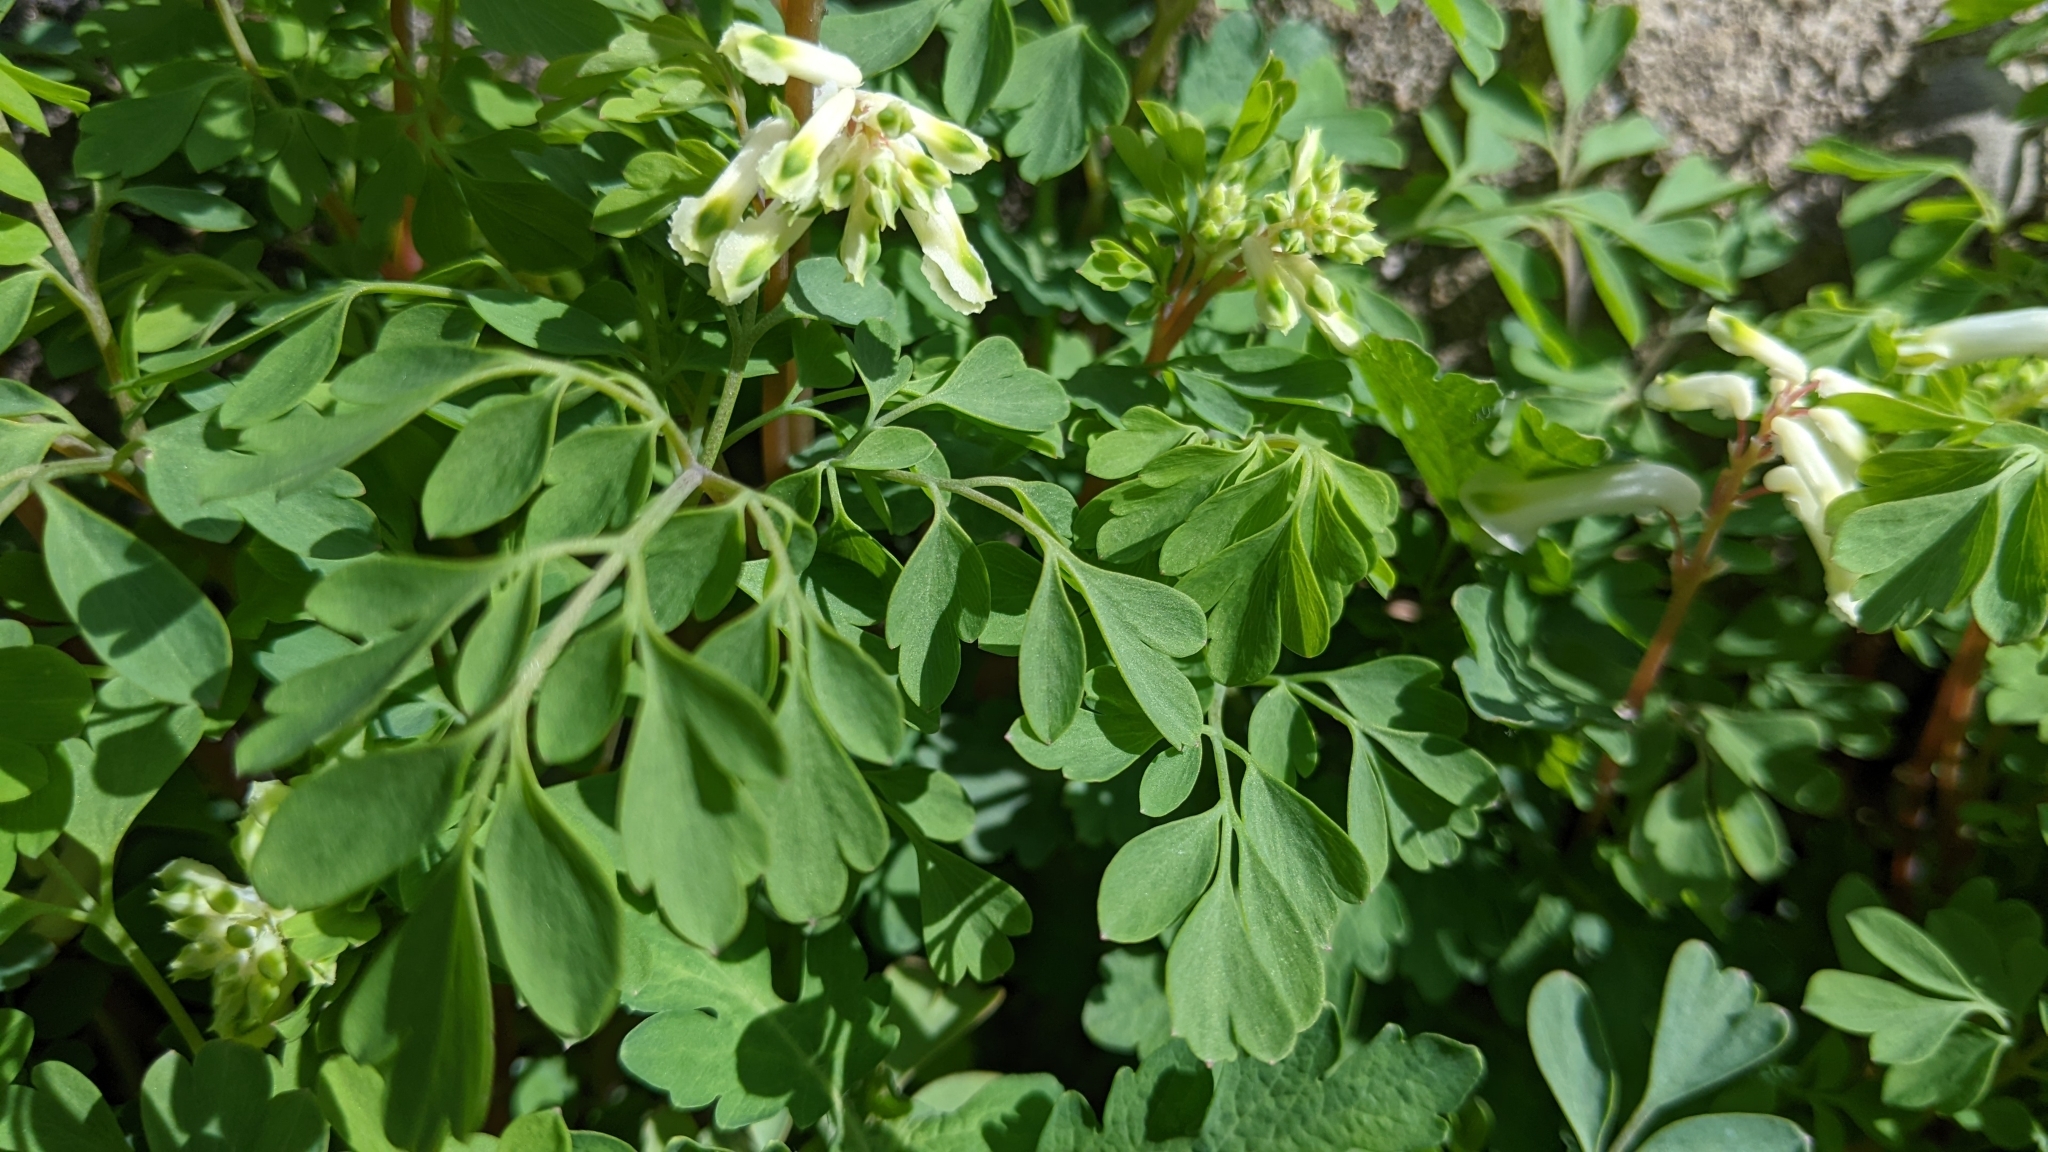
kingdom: Plantae
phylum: Tracheophyta
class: Magnoliopsida
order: Ranunculales
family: Papaveraceae
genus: Pseudofumaria
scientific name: Pseudofumaria alba
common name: Pale corydalis
